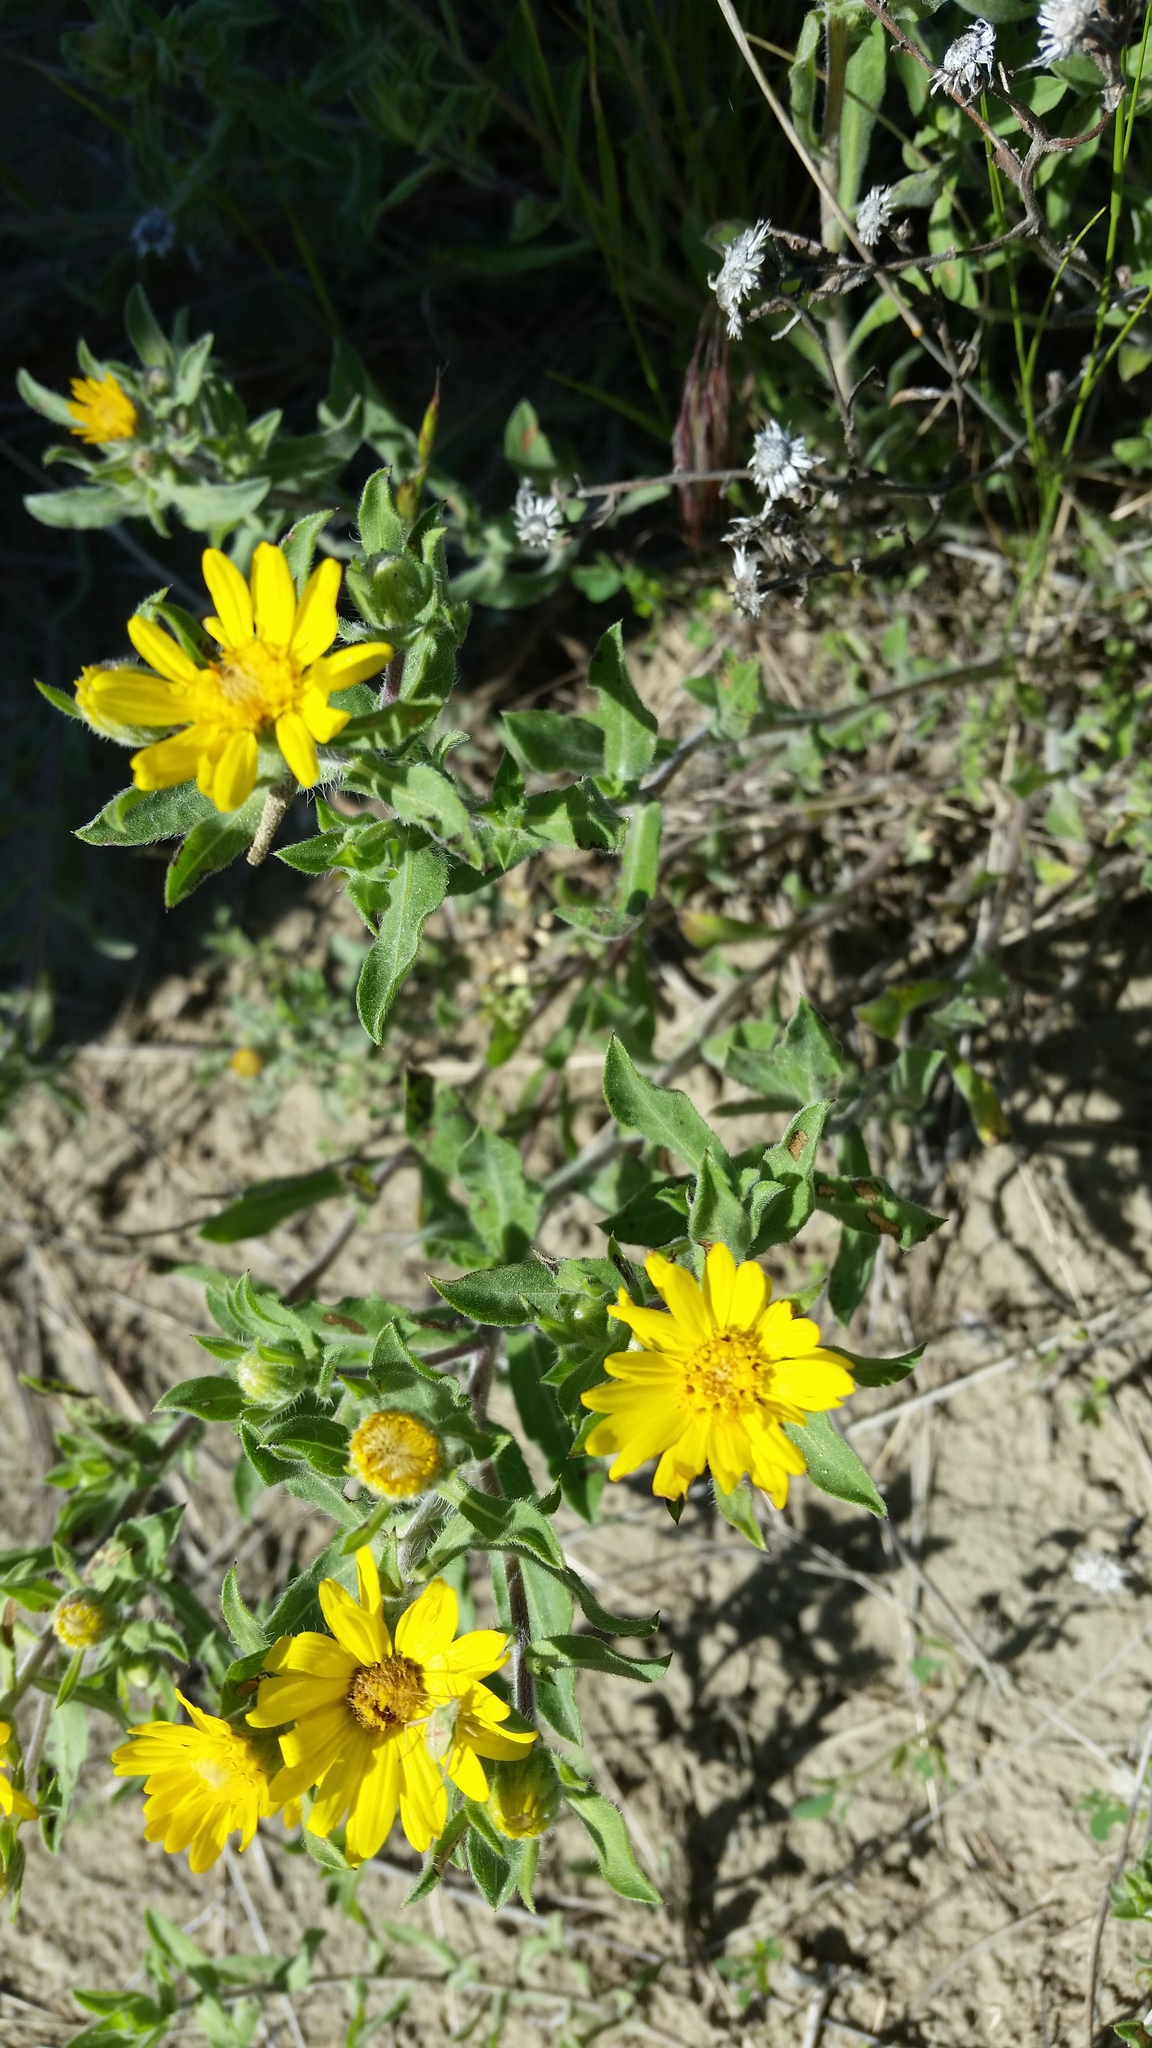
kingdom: Plantae
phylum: Tracheophyta
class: Magnoliopsida
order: Asterales
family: Asteraceae
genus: Heterotheca
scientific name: Heterotheca villosa
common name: Hairy false goldenaster
